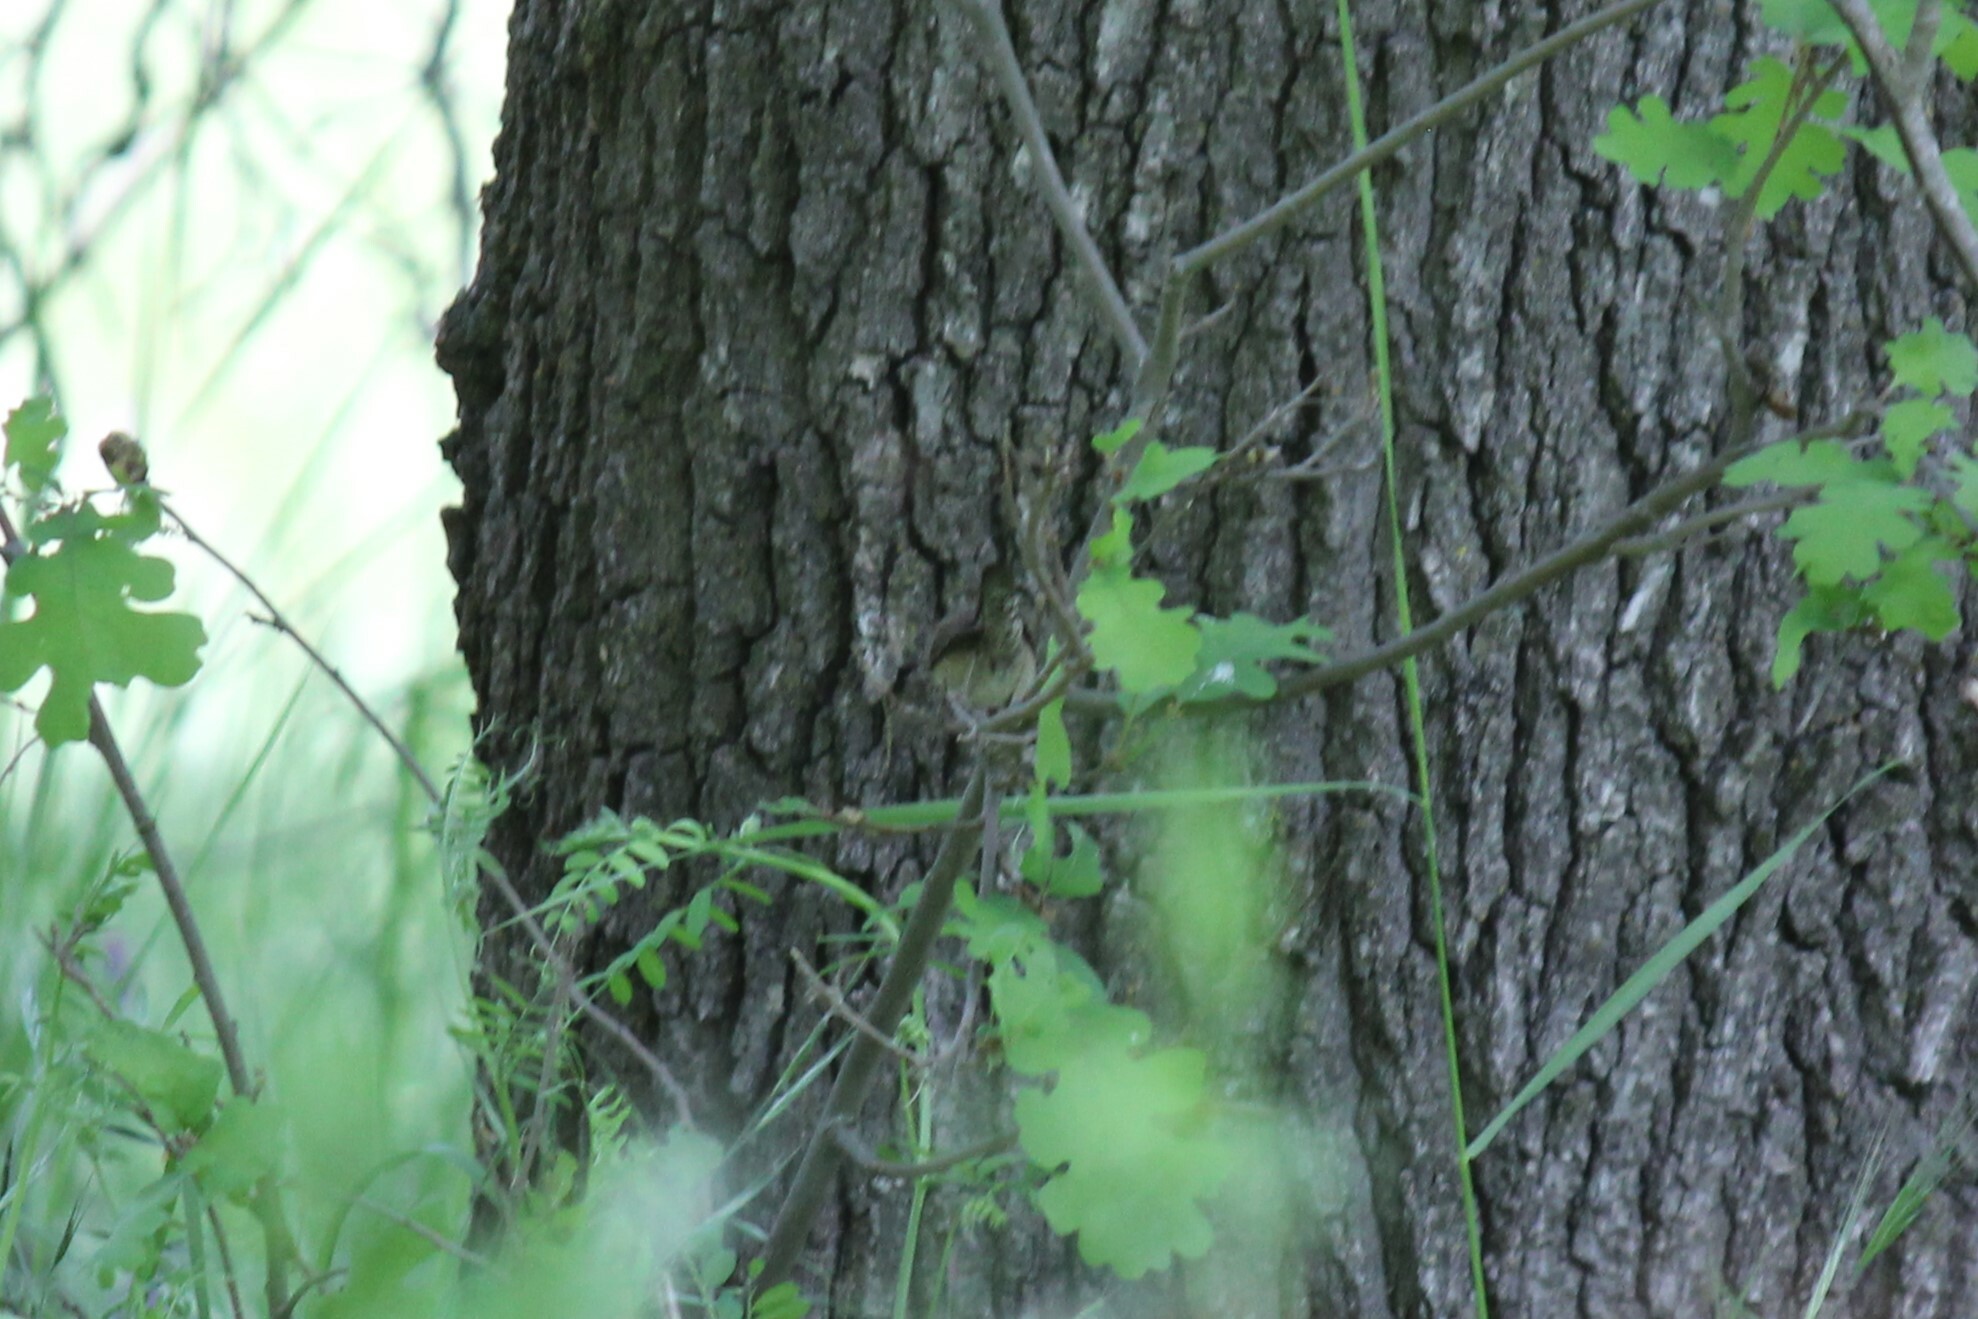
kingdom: Animalia
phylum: Chordata
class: Aves
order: Passeriformes
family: Troglodytidae
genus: Troglodytes
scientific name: Troglodytes aedon
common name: House wren
